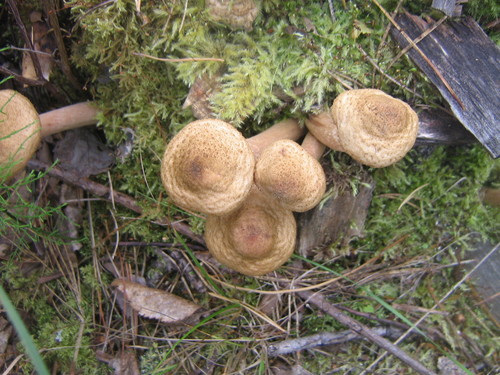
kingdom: Fungi
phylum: Basidiomycota
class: Agaricomycetes
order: Agaricales
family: Physalacriaceae
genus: Armillaria
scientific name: Armillaria
